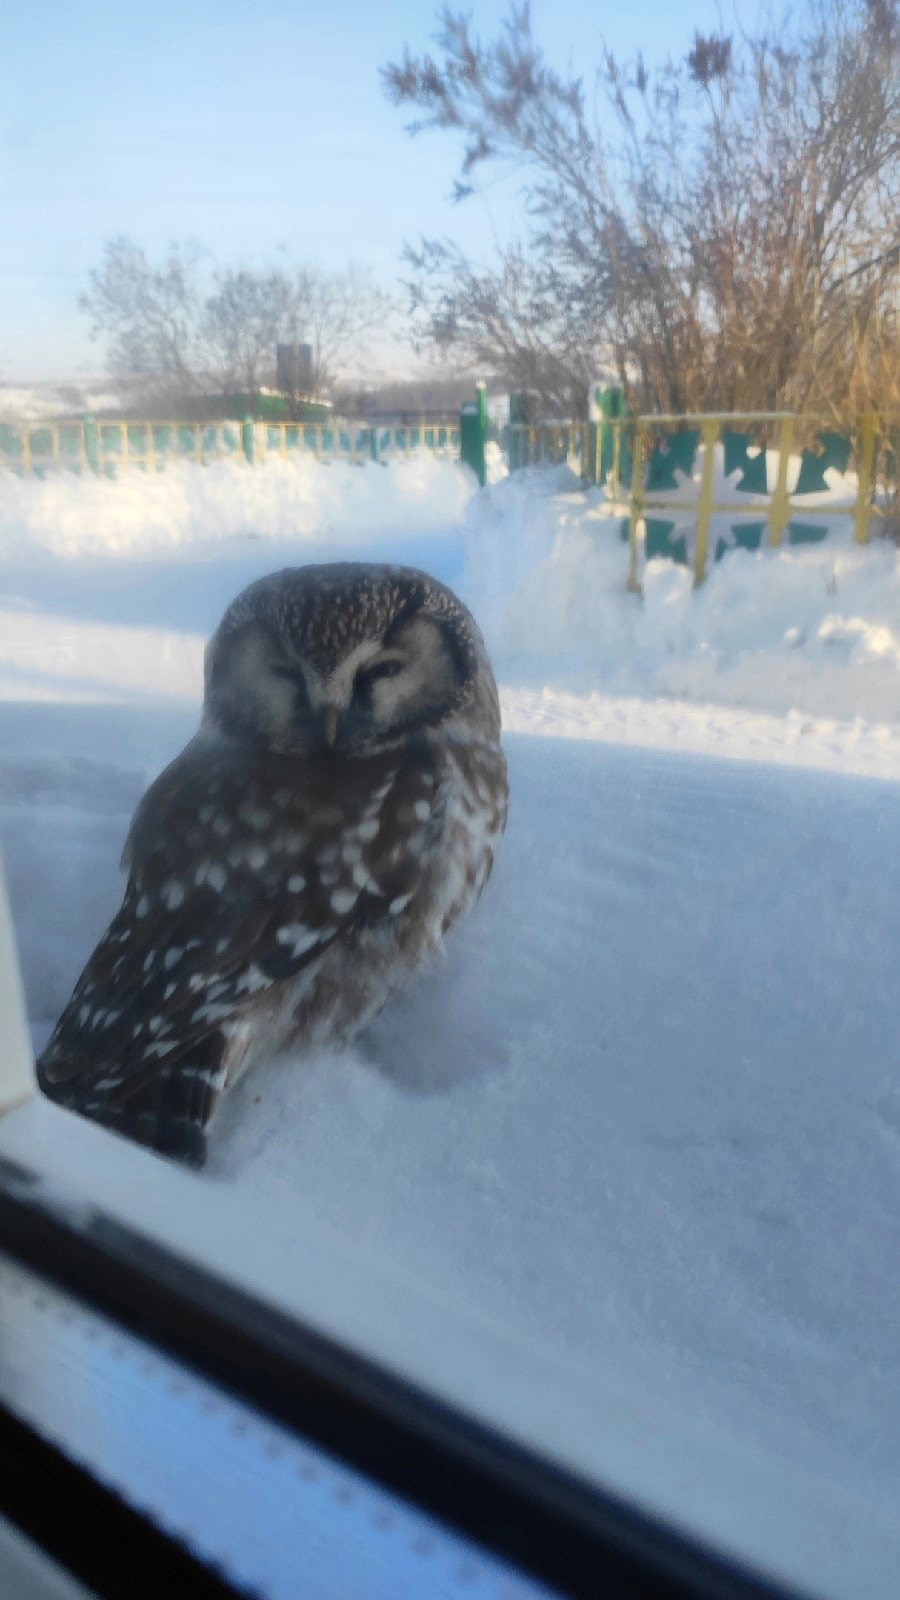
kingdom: Animalia
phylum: Chordata
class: Aves
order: Strigiformes
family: Strigidae
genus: Aegolius
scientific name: Aegolius funereus
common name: Boreal owl
